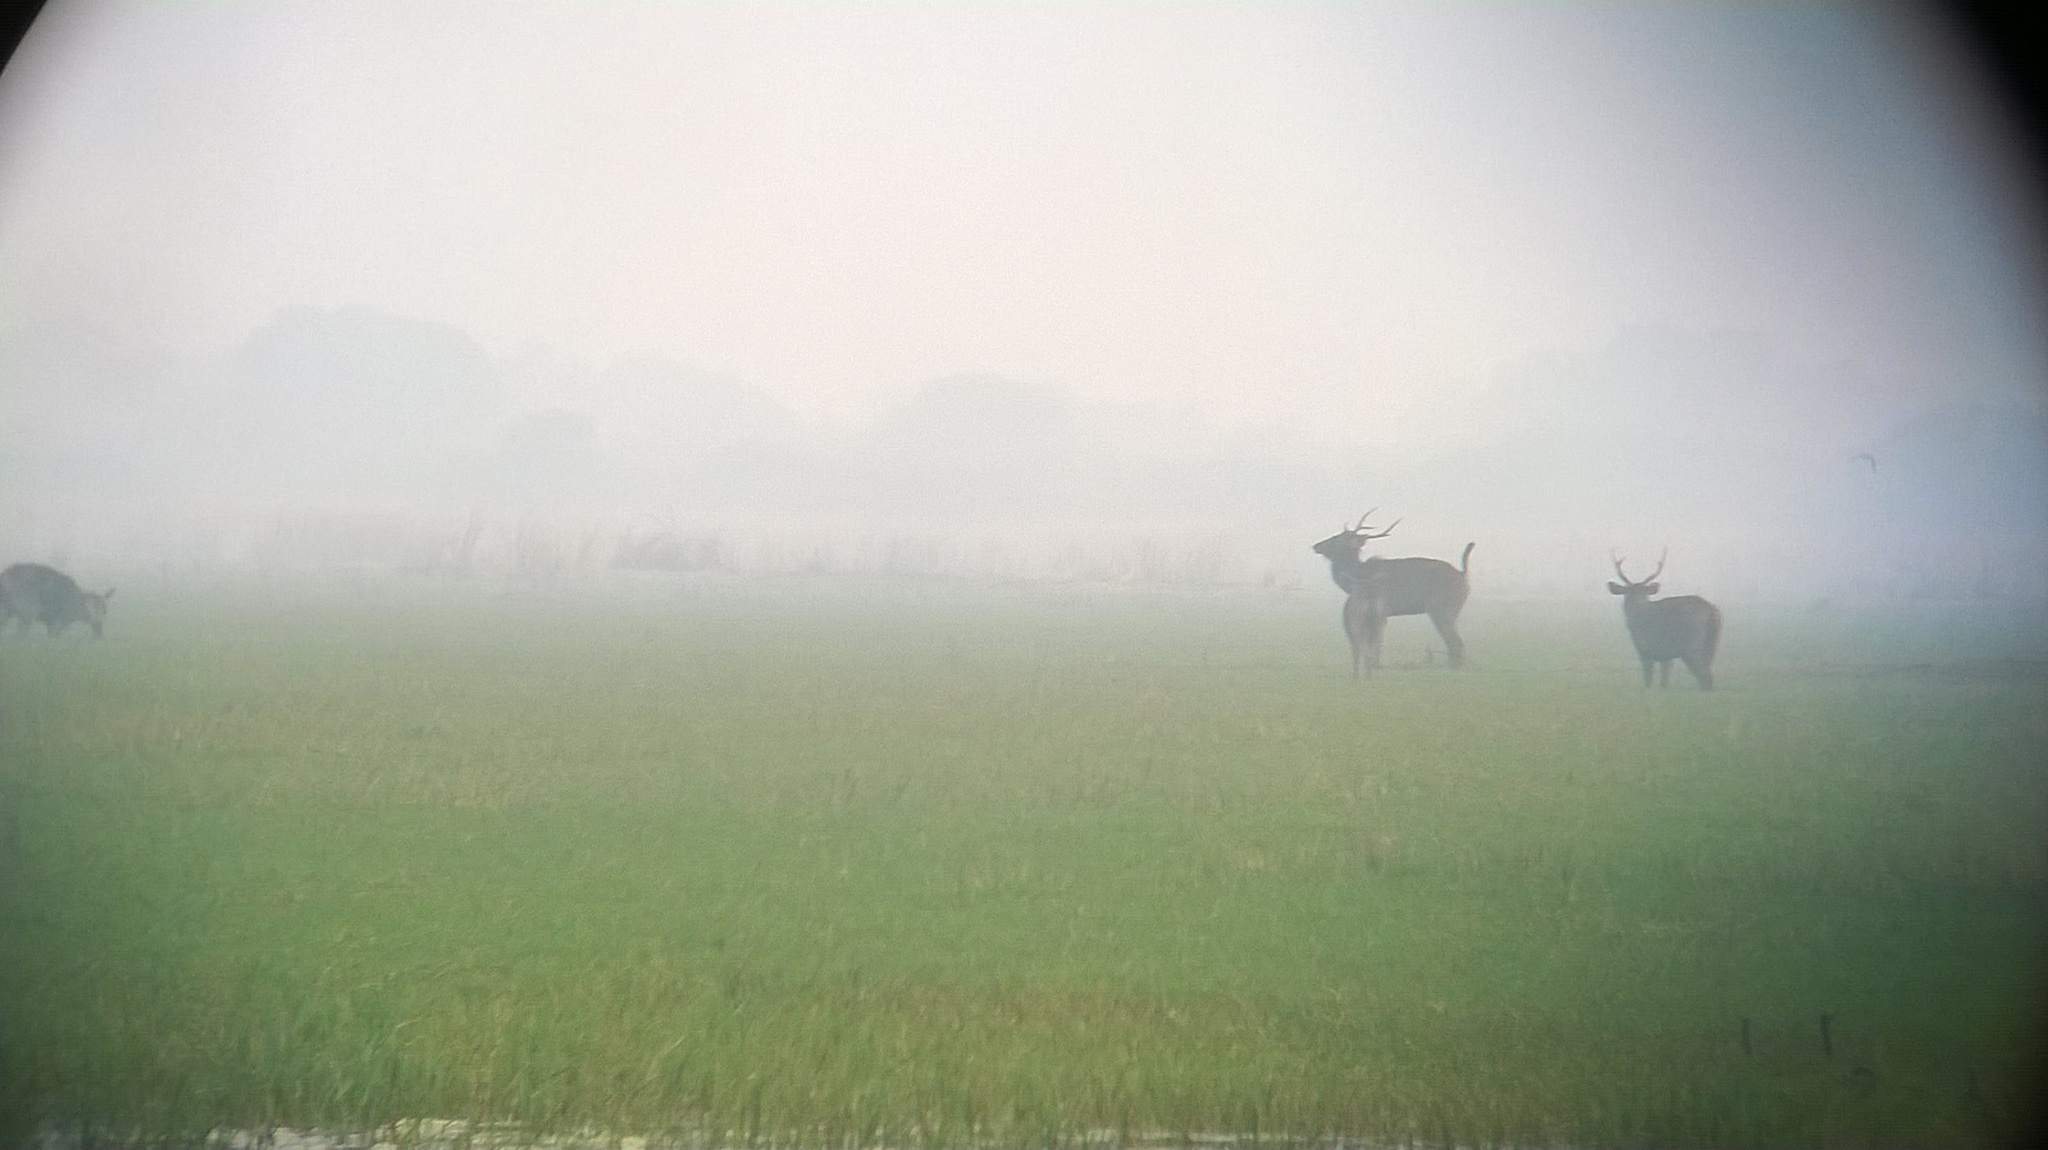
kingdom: Animalia
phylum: Chordata
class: Mammalia
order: Artiodactyla
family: Cervidae
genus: Rusa
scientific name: Rusa unicolor
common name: Sambar
